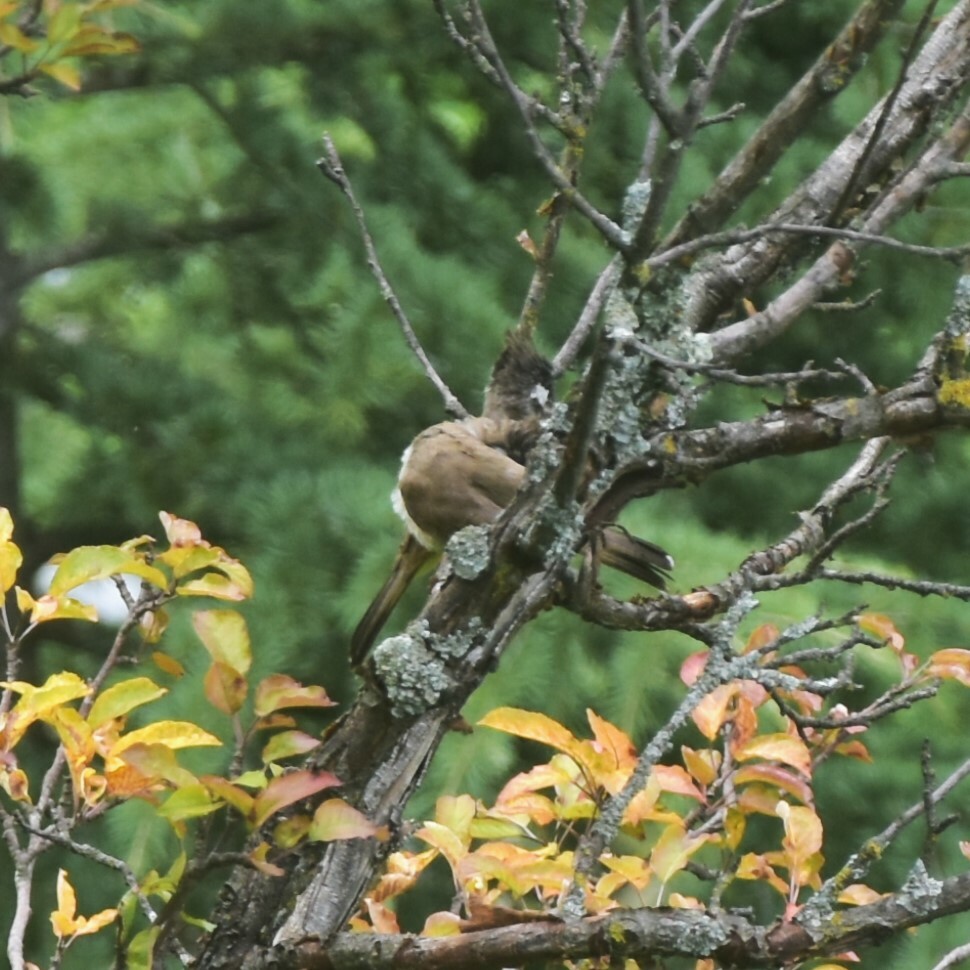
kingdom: Animalia
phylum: Chordata
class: Aves
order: Passeriformes
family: Pycnonotidae
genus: Pycnonotus
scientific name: Pycnonotus leucogenys
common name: Himalayan bulbul
